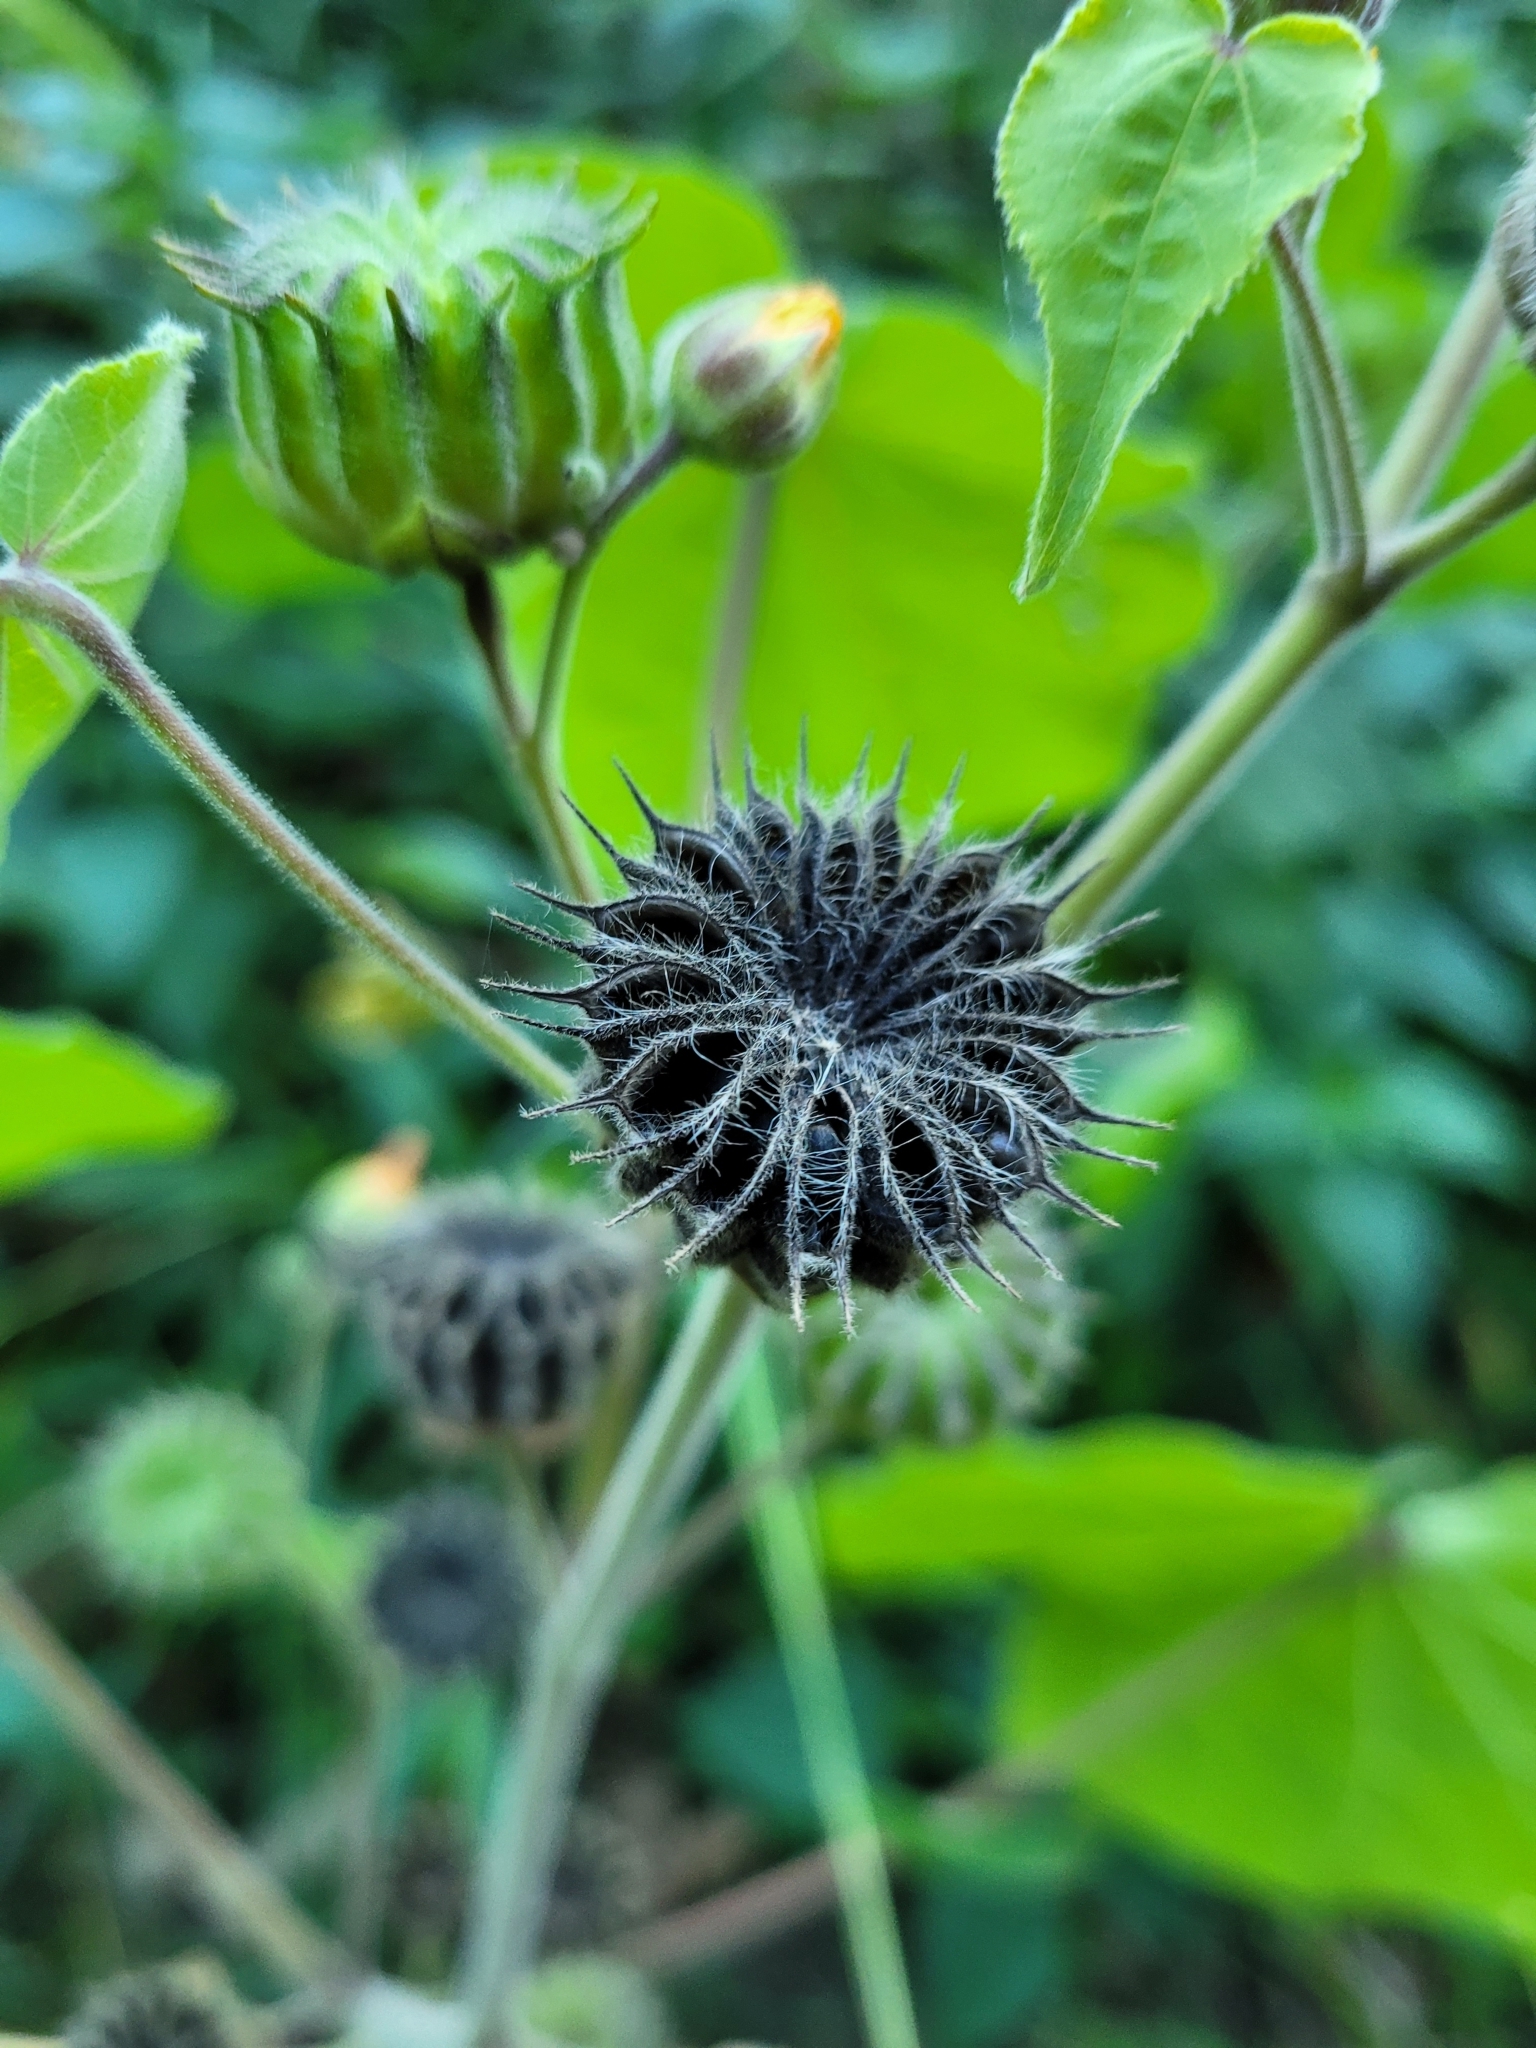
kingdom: Plantae
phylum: Tracheophyta
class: Magnoliopsida
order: Malvales
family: Malvaceae
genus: Abutilon
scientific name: Abutilon theophrasti
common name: Velvetleaf
